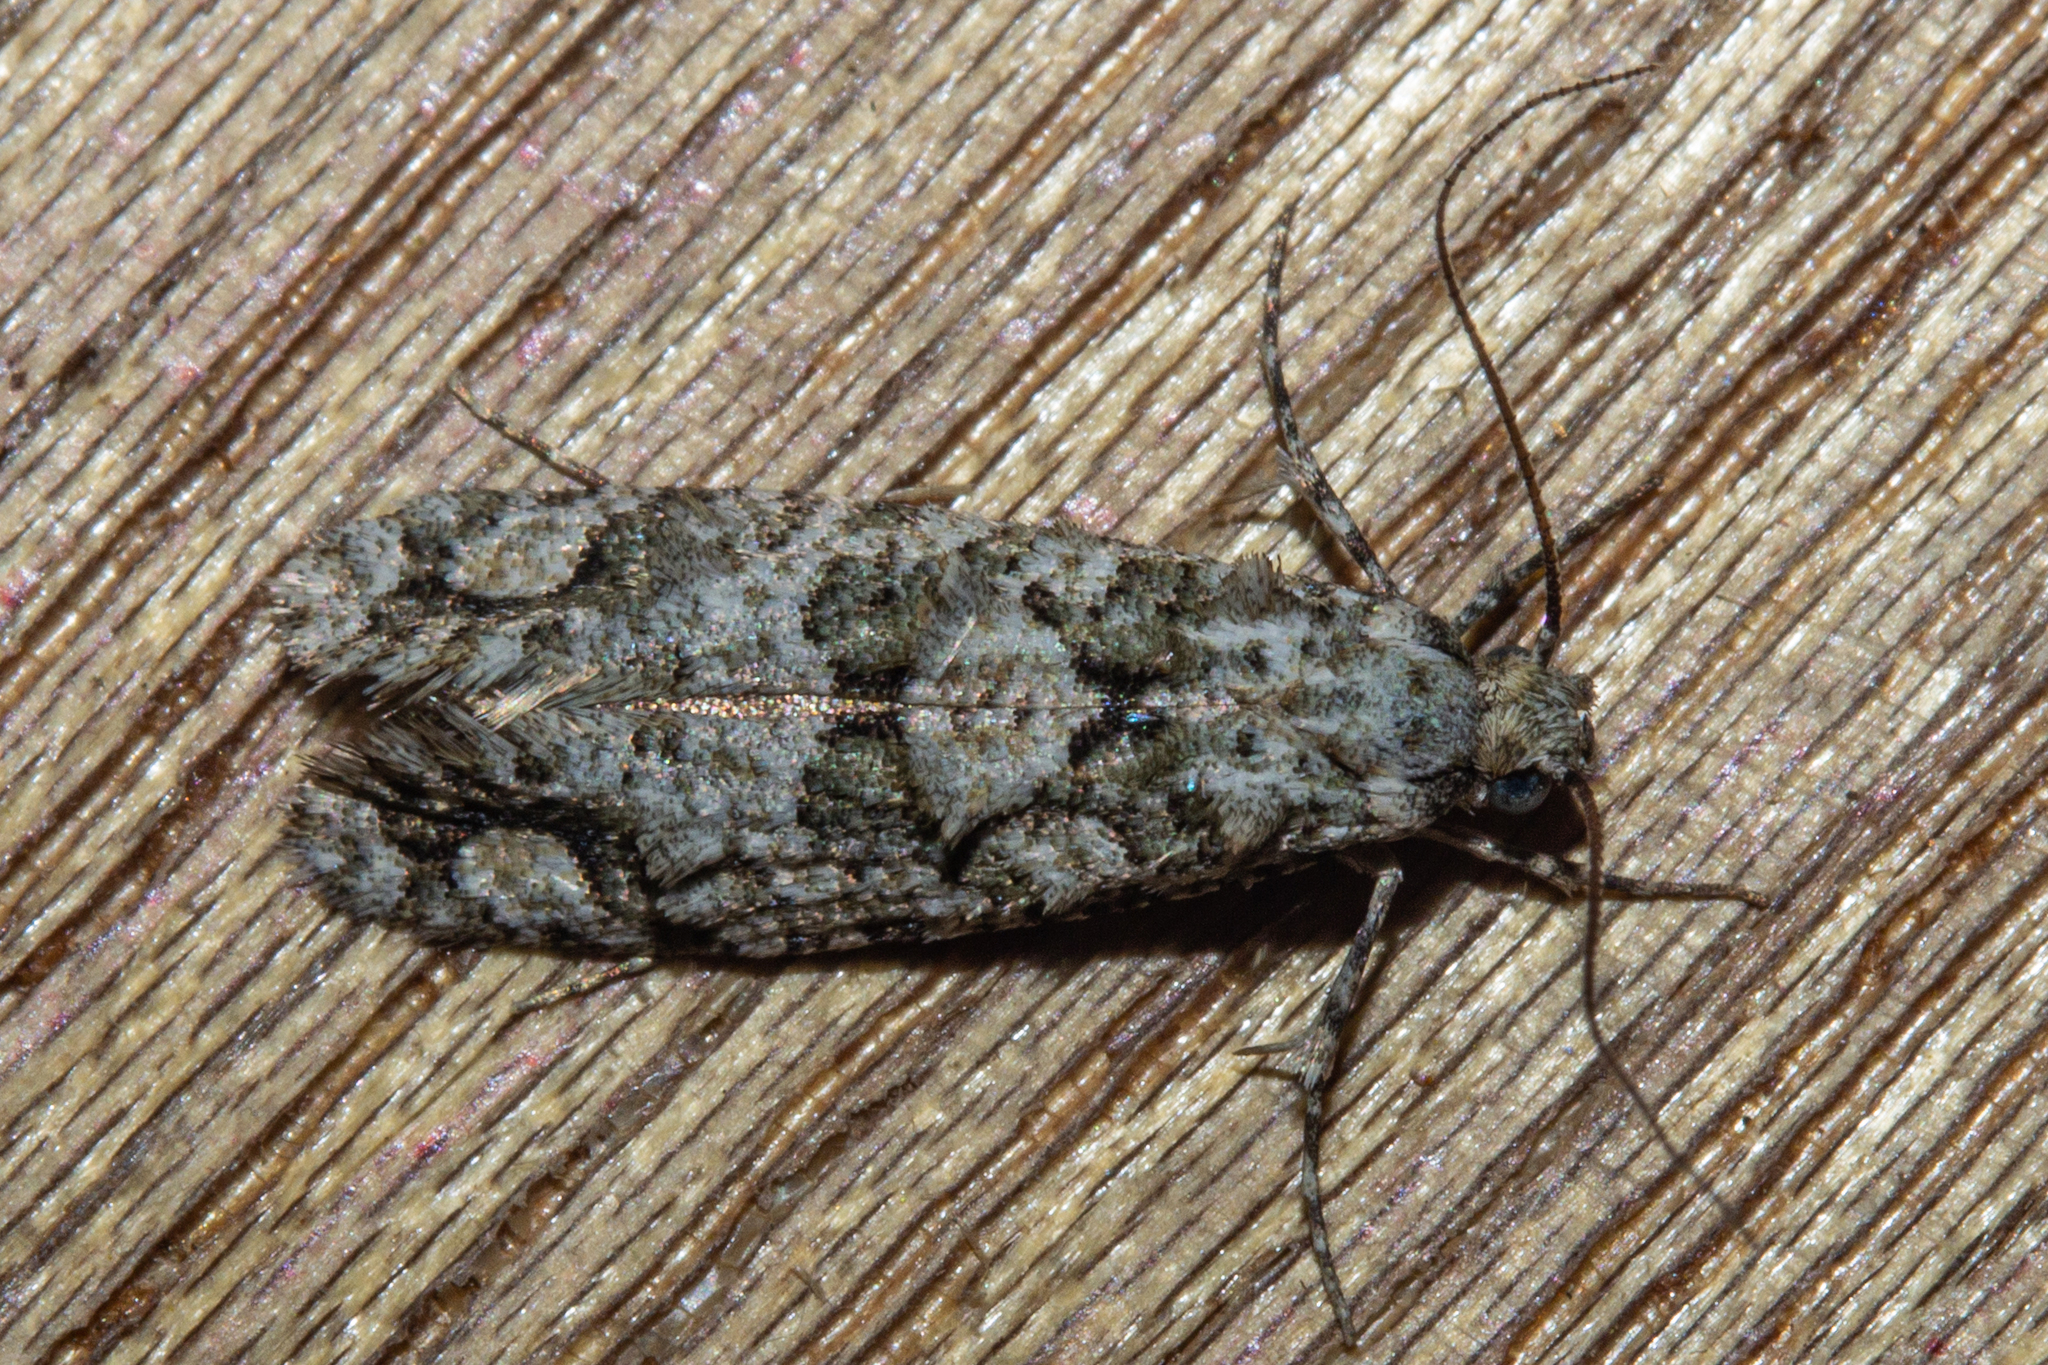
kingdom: Animalia
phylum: Arthropoda
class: Insecta
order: Lepidoptera
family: Tineidae
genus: Lysiphragma
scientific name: Lysiphragma howesii
